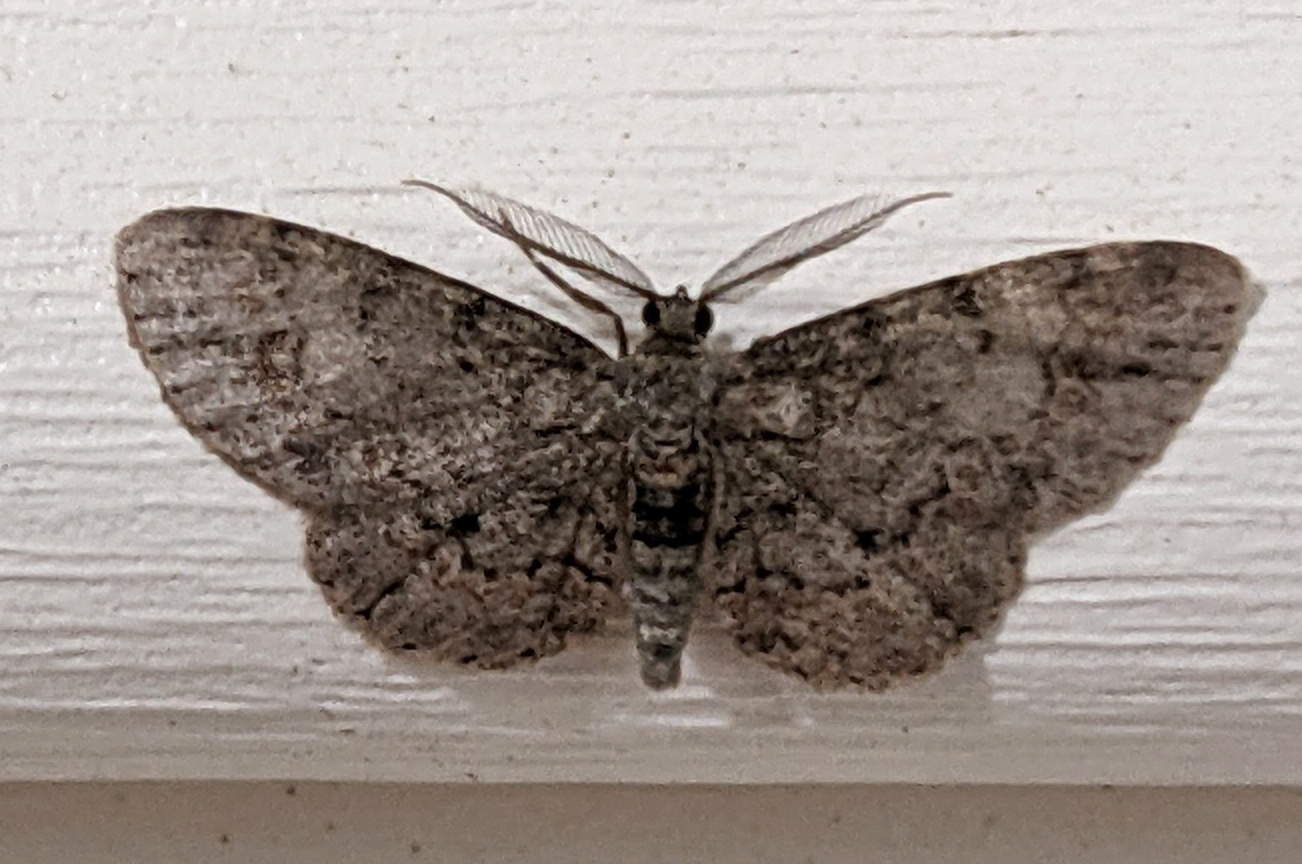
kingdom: Animalia
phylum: Arthropoda
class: Insecta
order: Lepidoptera
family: Geometridae
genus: Glenoides
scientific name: Glenoides texanaria
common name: Texas gray
